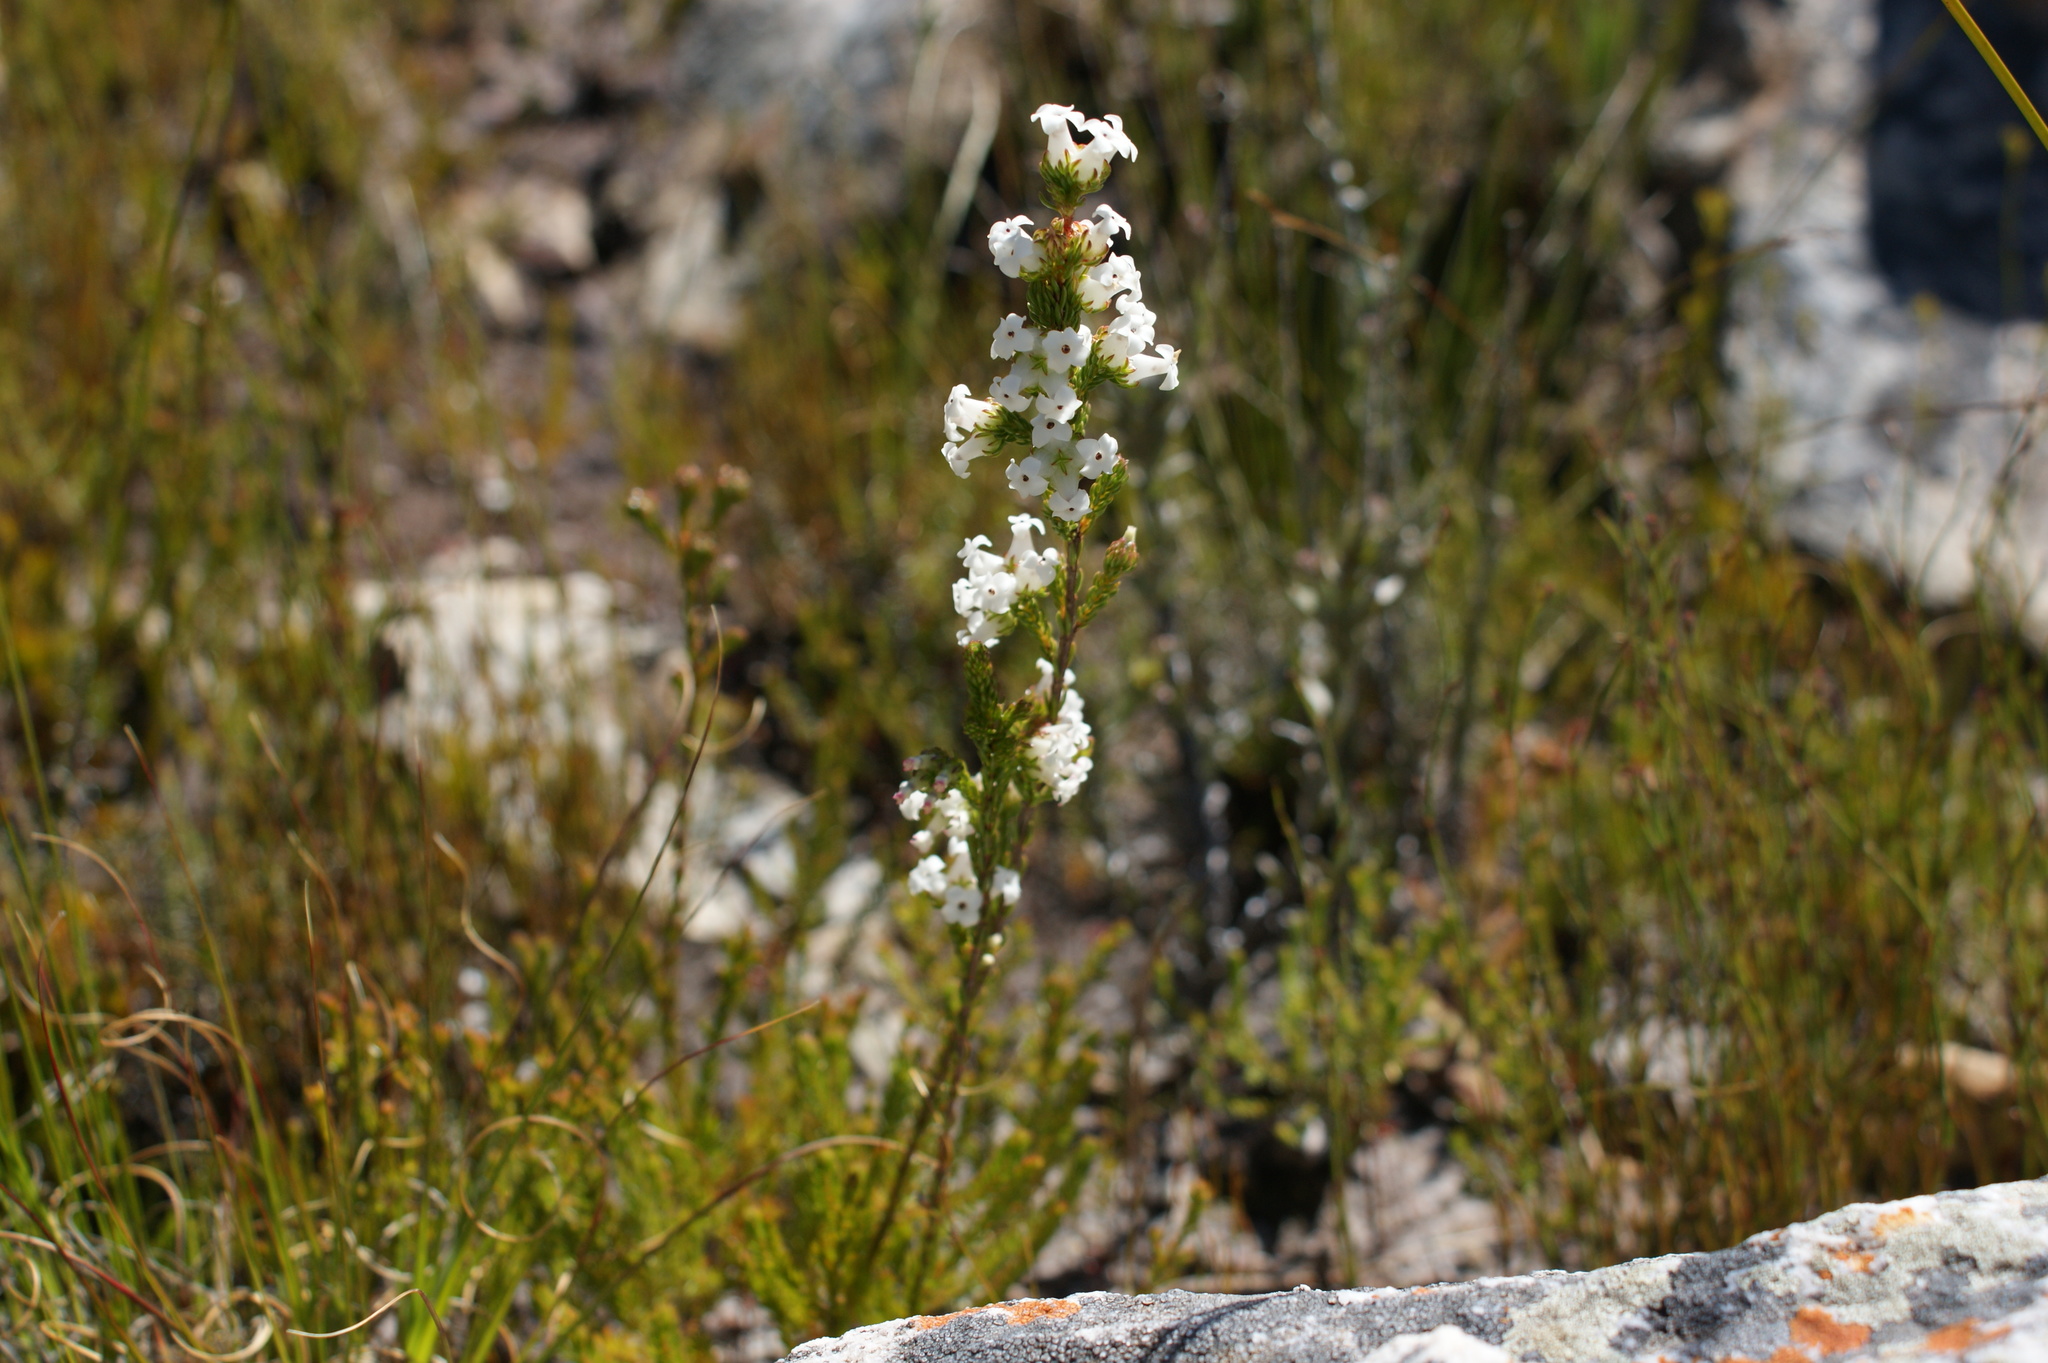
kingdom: Plantae
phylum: Tracheophyta
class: Magnoliopsida
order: Ericales
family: Ericaceae
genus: Erica
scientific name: Erica denticulata
